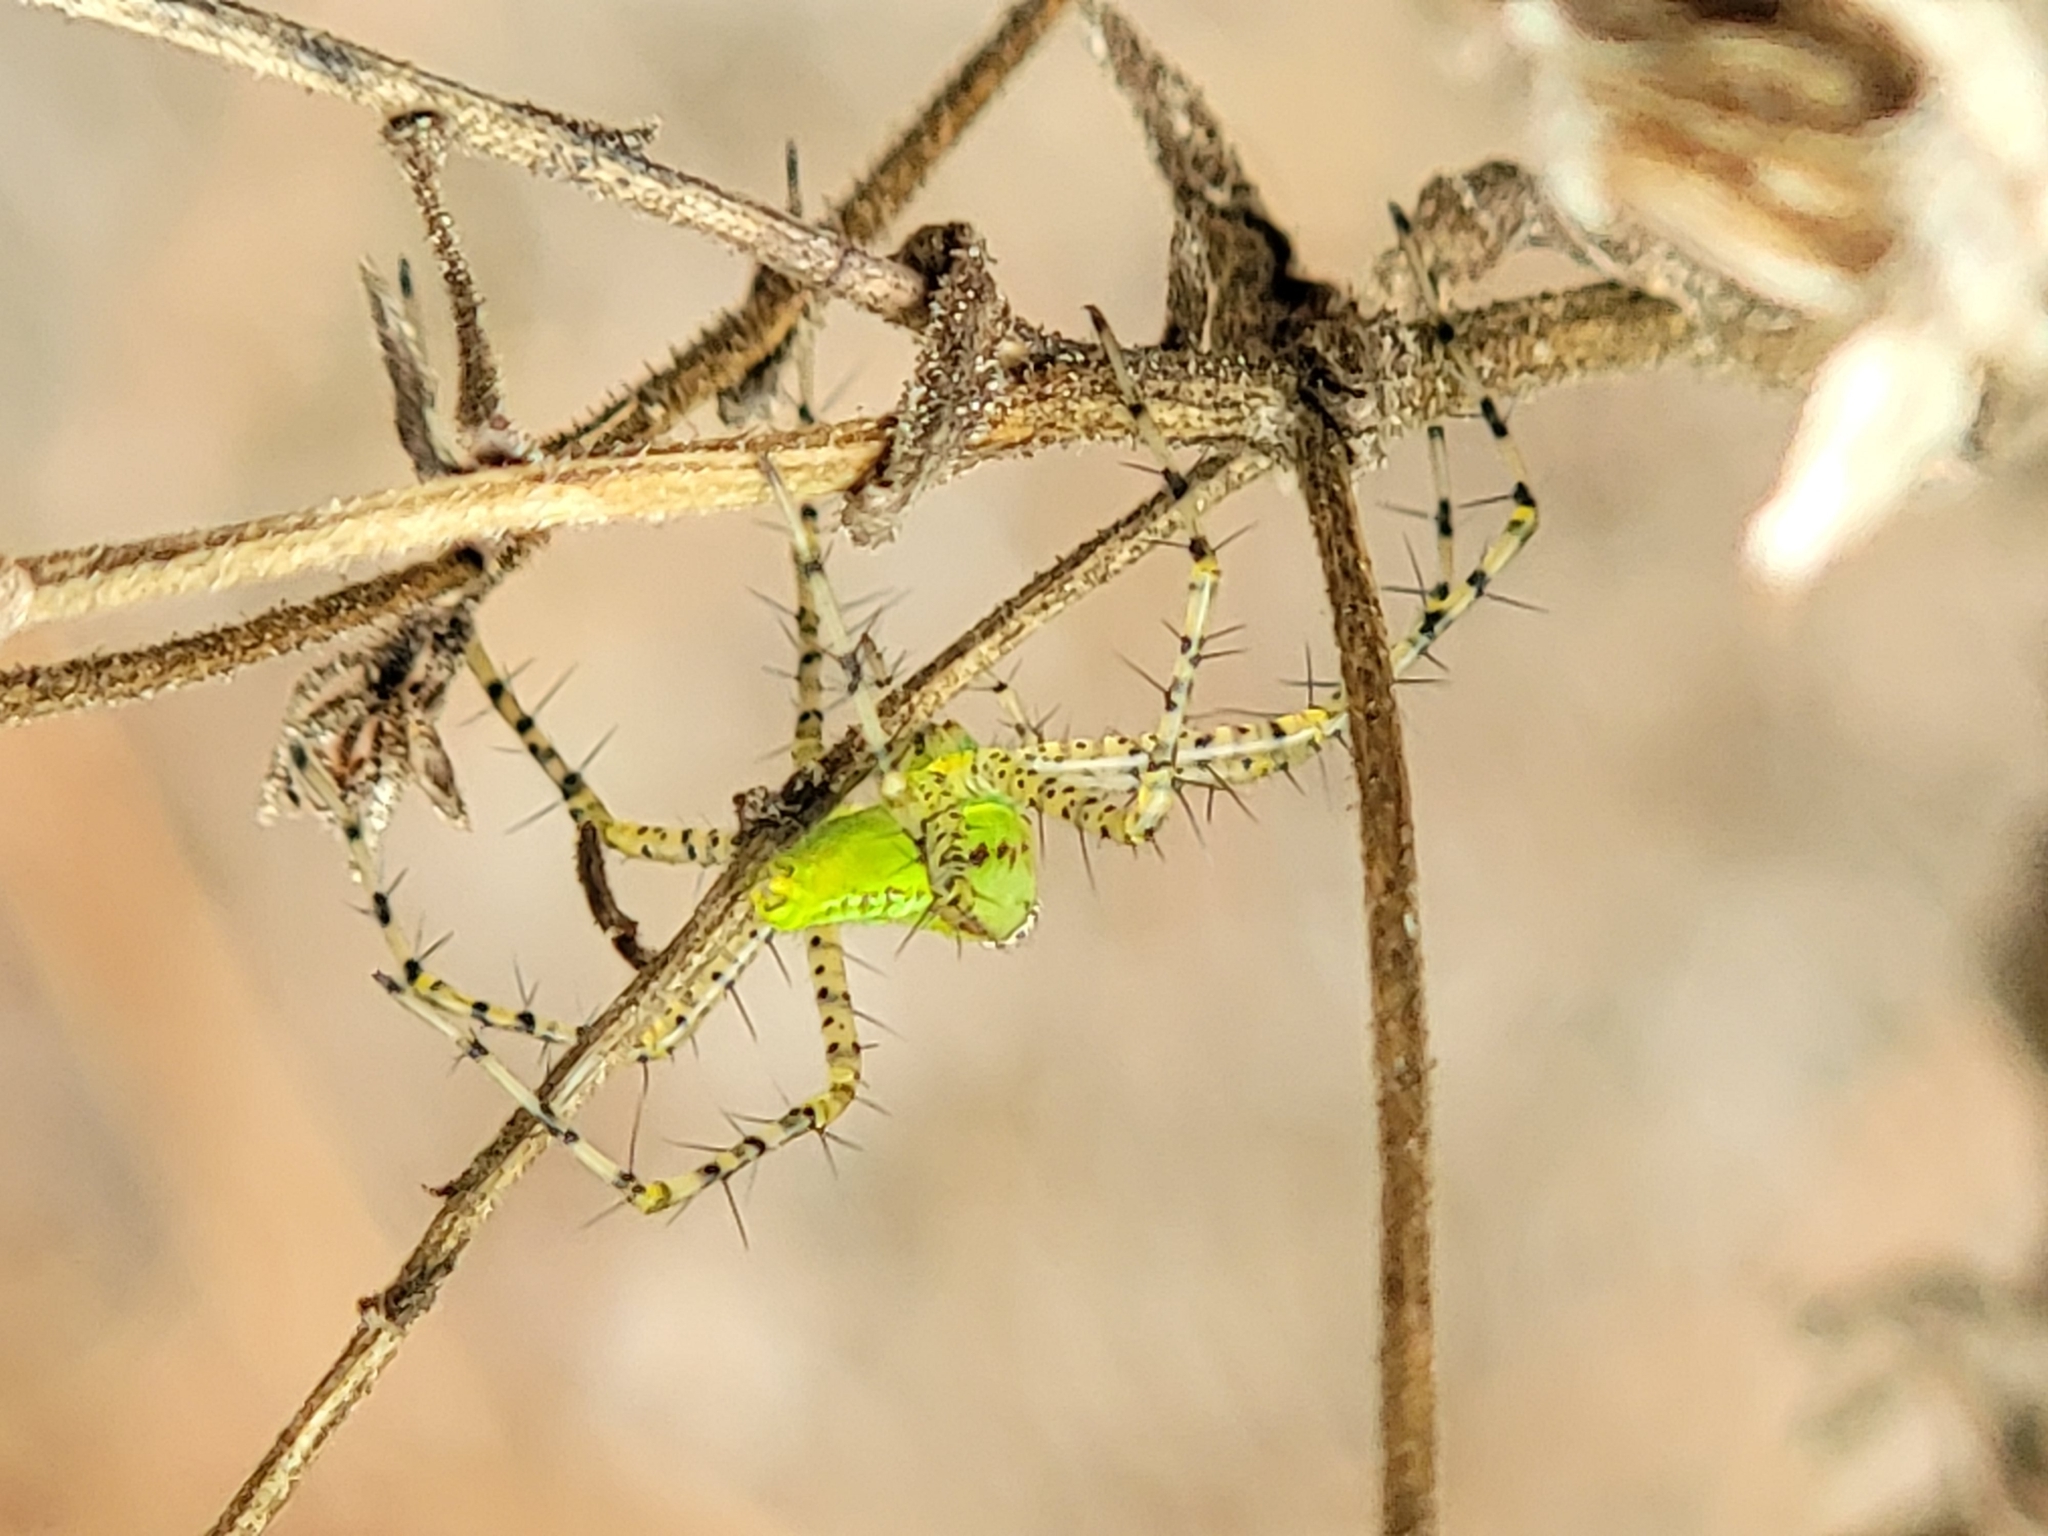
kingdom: Animalia
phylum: Arthropoda
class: Arachnida
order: Araneae
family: Oxyopidae
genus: Peucetia
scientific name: Peucetia viridans
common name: Lynx spiders
